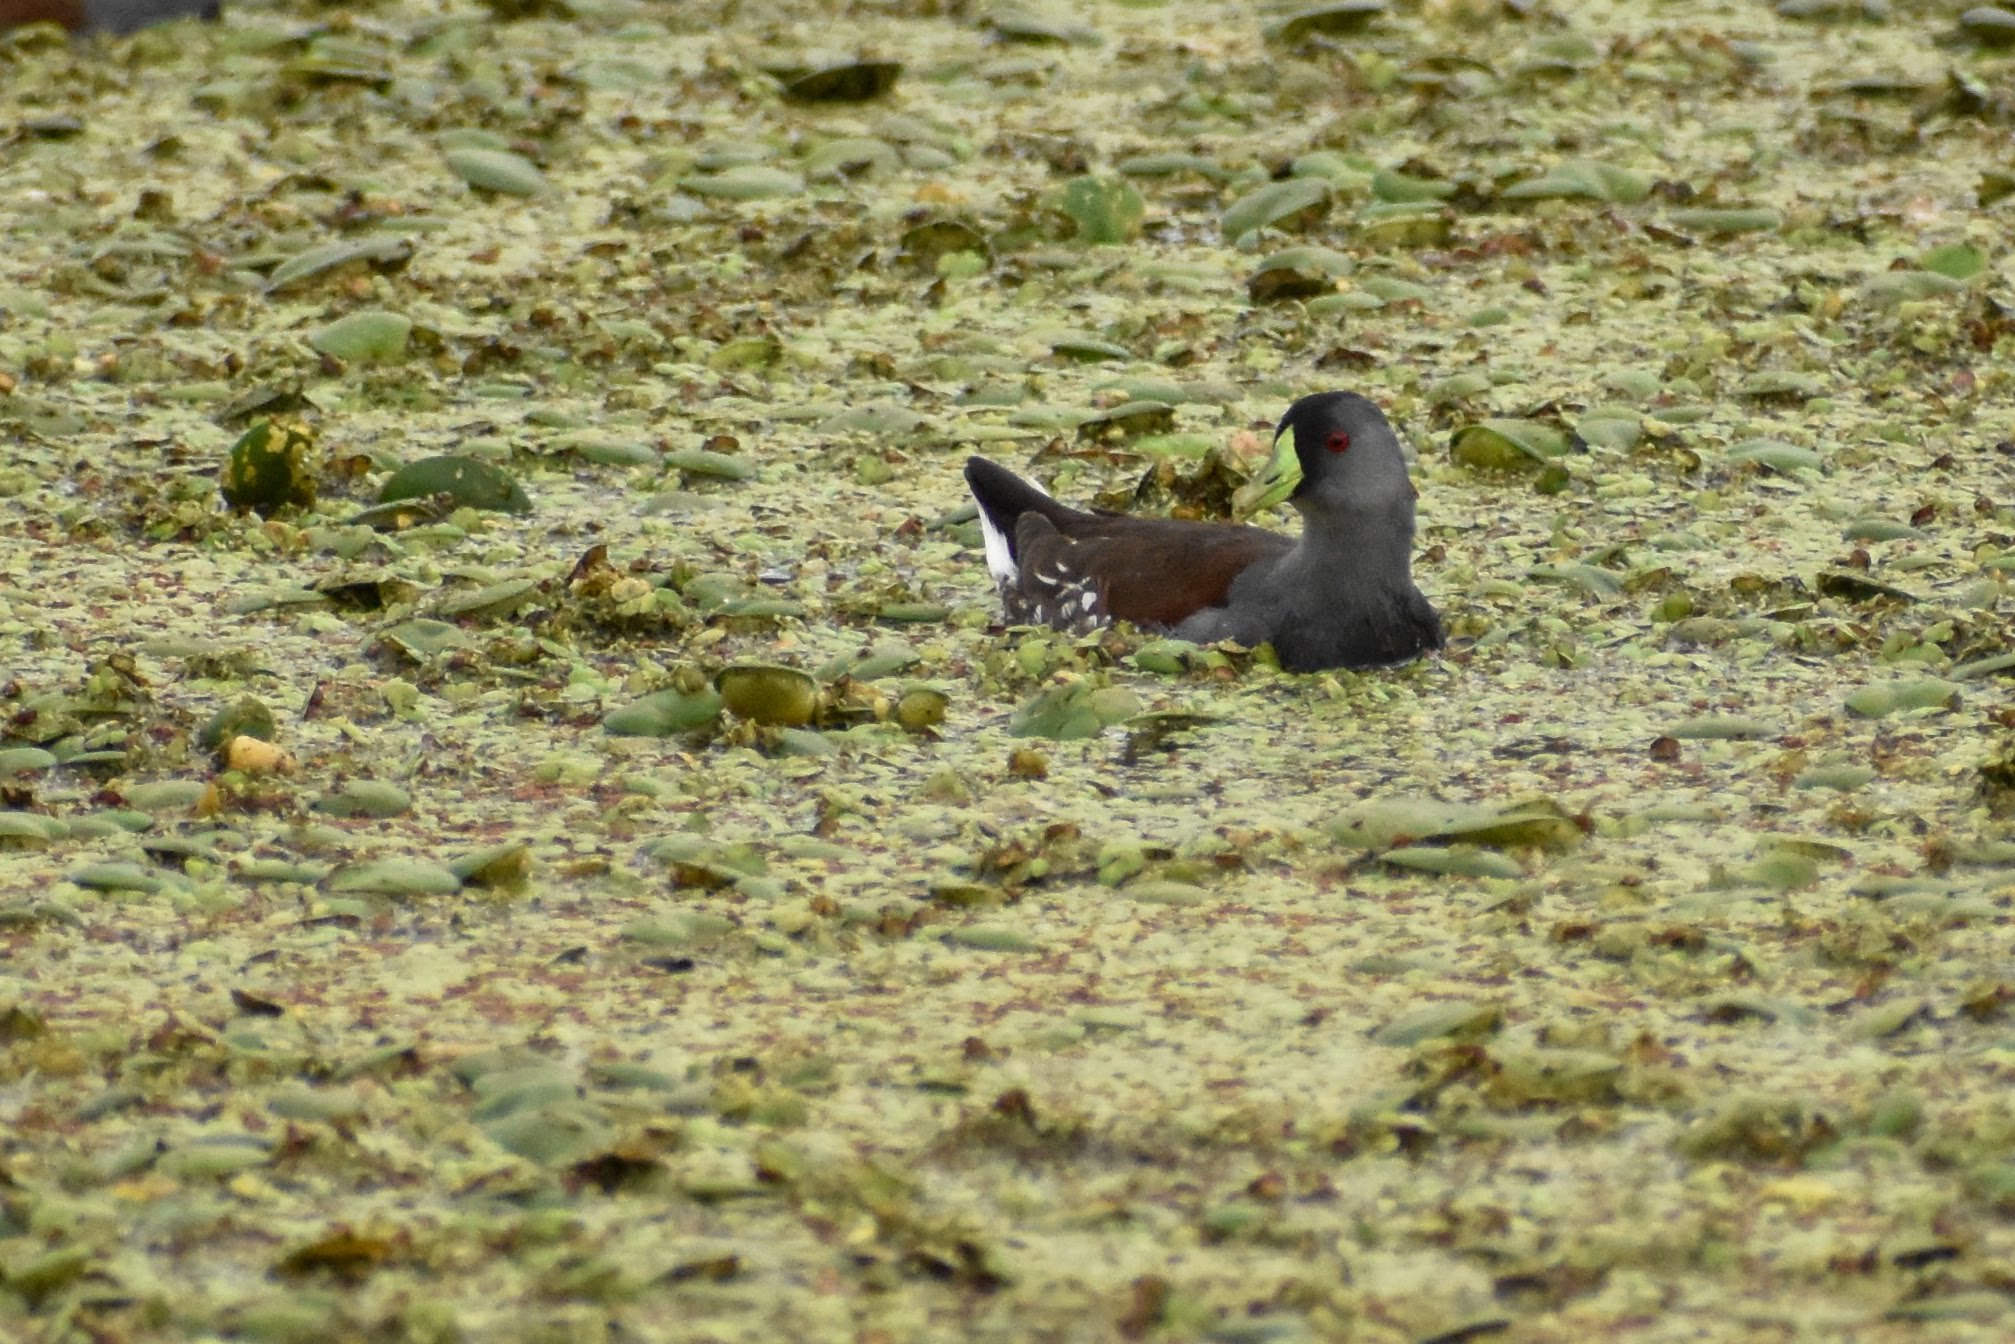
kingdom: Animalia
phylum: Chordata
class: Aves
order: Gruiformes
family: Rallidae
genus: Gallinula
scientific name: Gallinula melanops
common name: Spot-flanked gallinule
